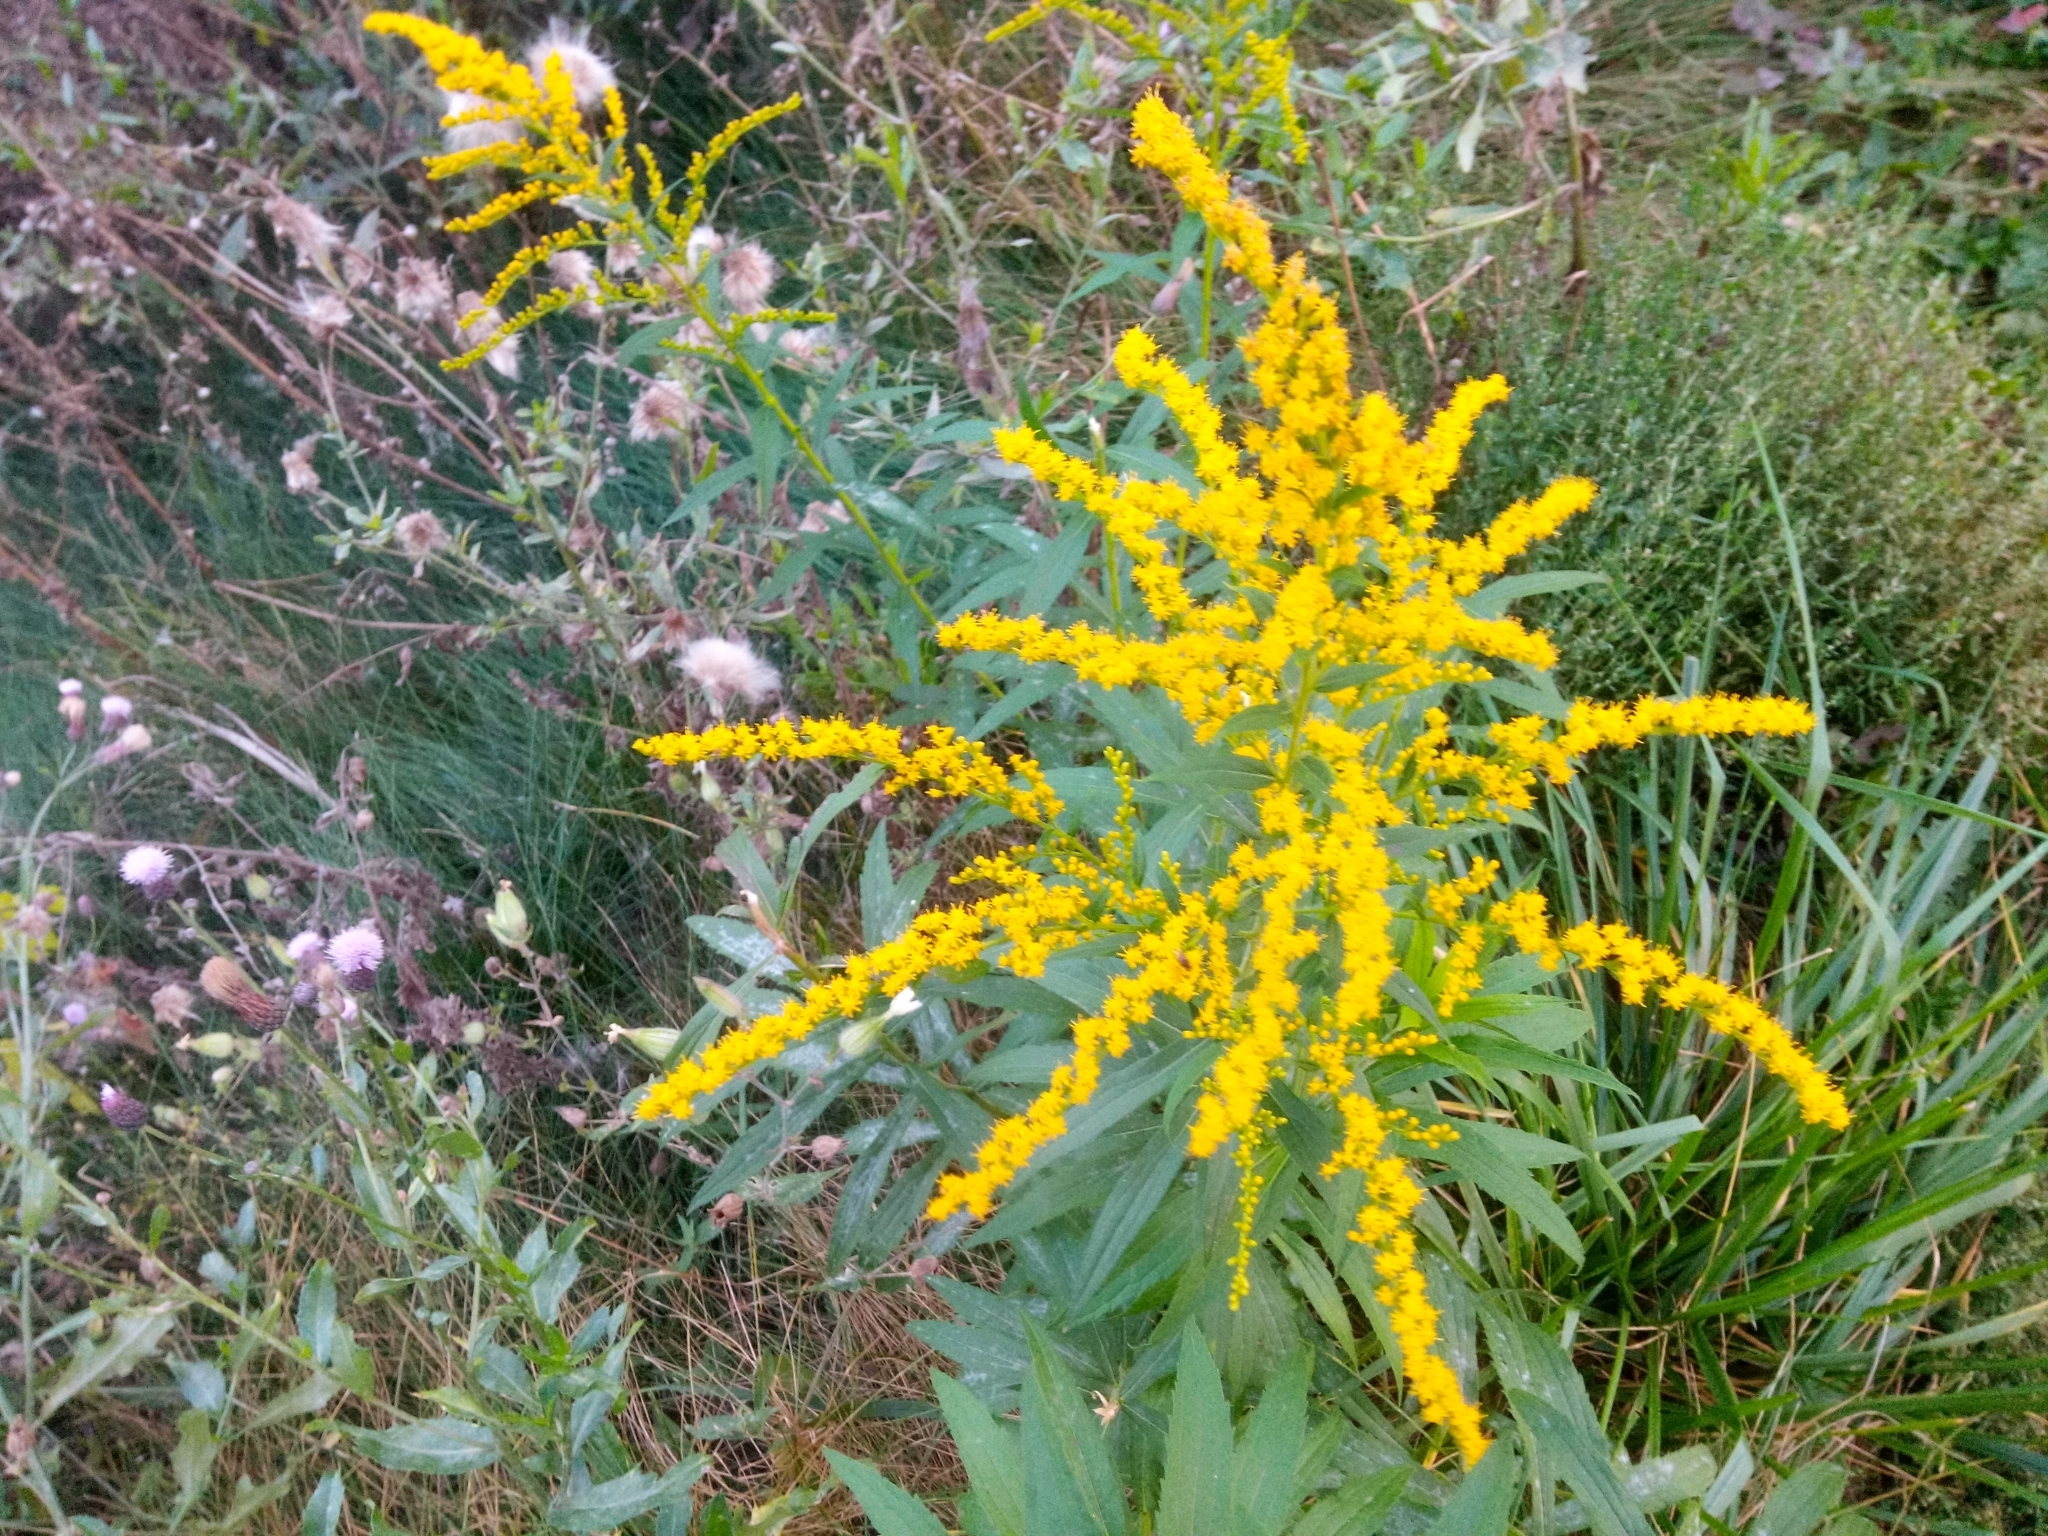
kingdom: Plantae
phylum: Tracheophyta
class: Magnoliopsida
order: Asterales
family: Asteraceae
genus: Solidago
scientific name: Solidago canadensis
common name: Canada goldenrod
